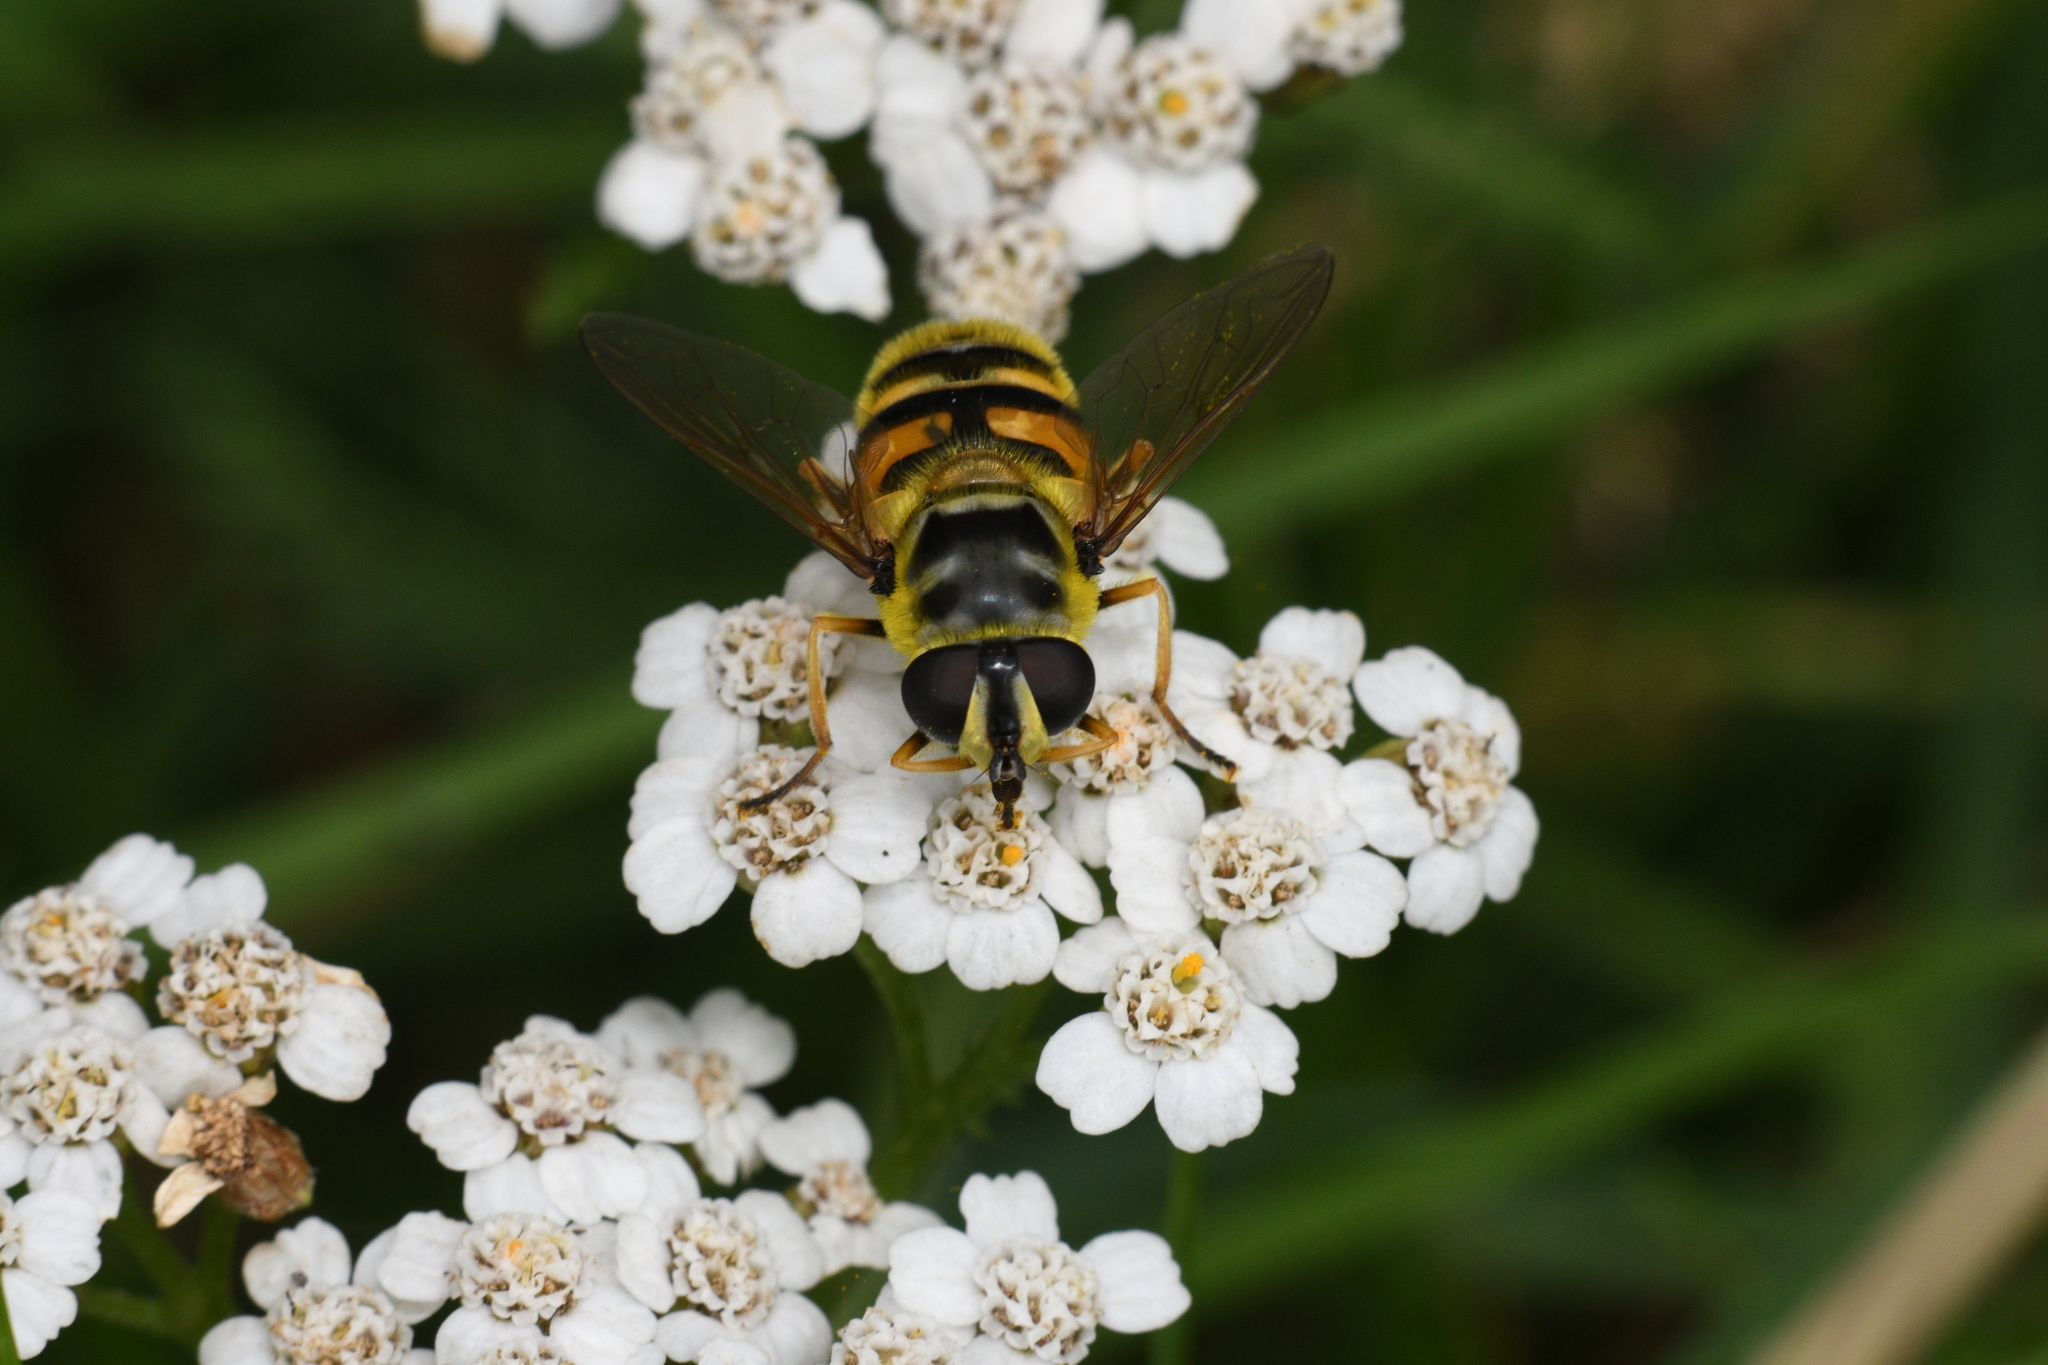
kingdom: Animalia
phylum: Arthropoda
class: Insecta
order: Diptera
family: Syrphidae
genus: Myathropa
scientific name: Myathropa florea
